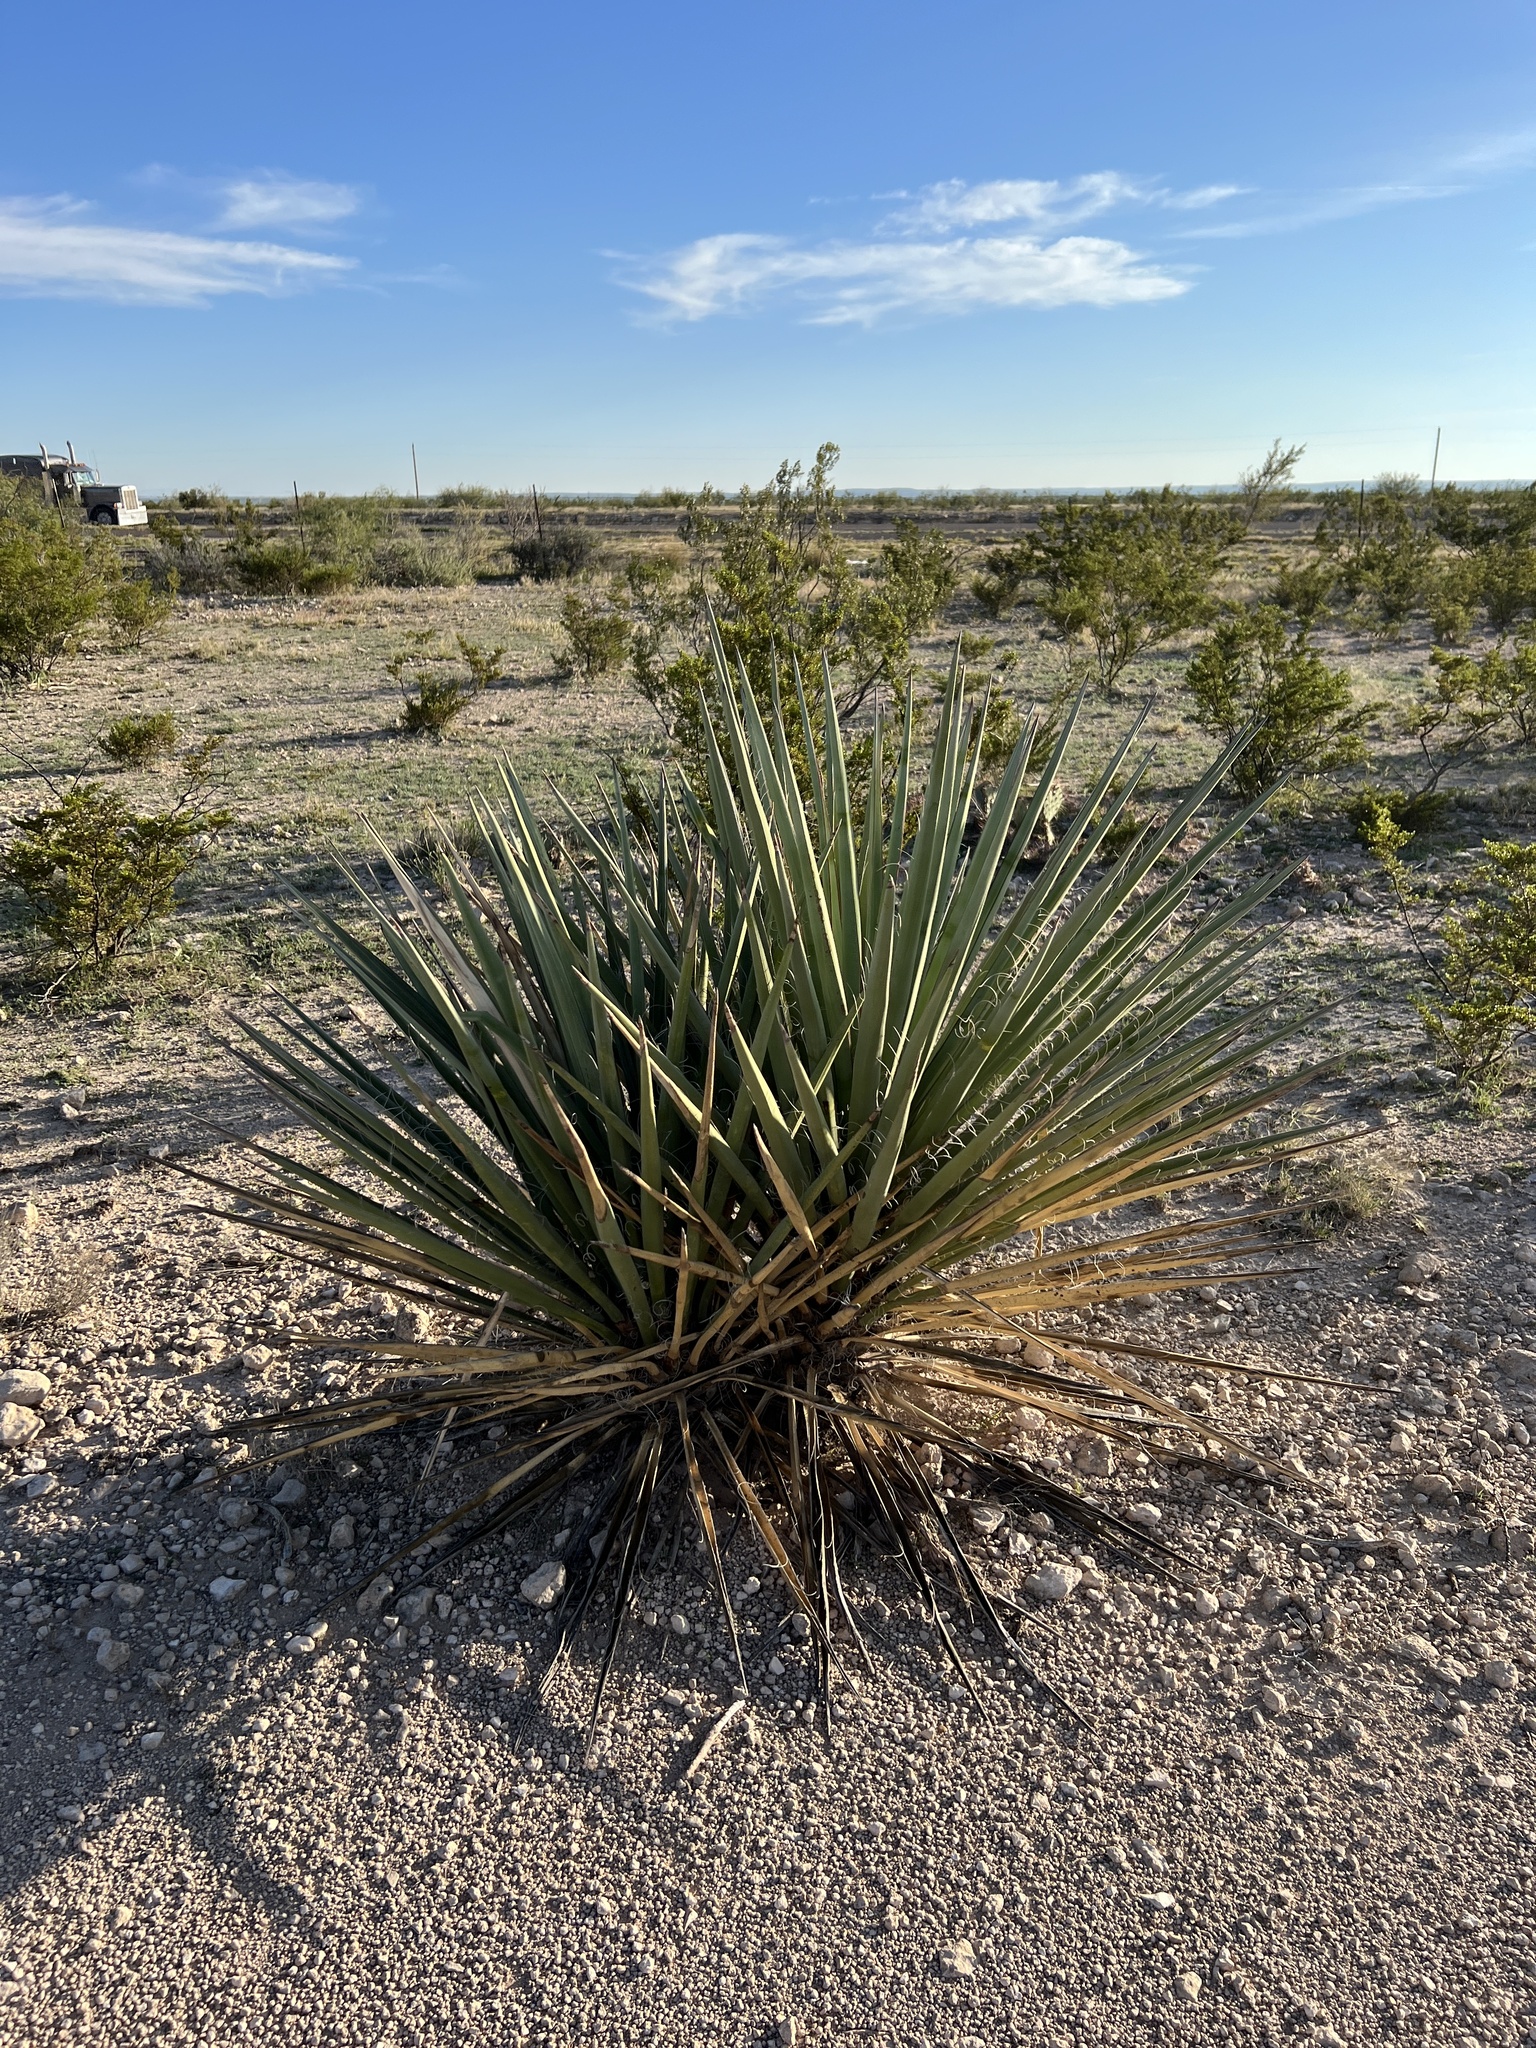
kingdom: Plantae
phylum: Tracheophyta
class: Liliopsida
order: Asparagales
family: Asparagaceae
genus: Yucca
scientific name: Yucca treculiana
